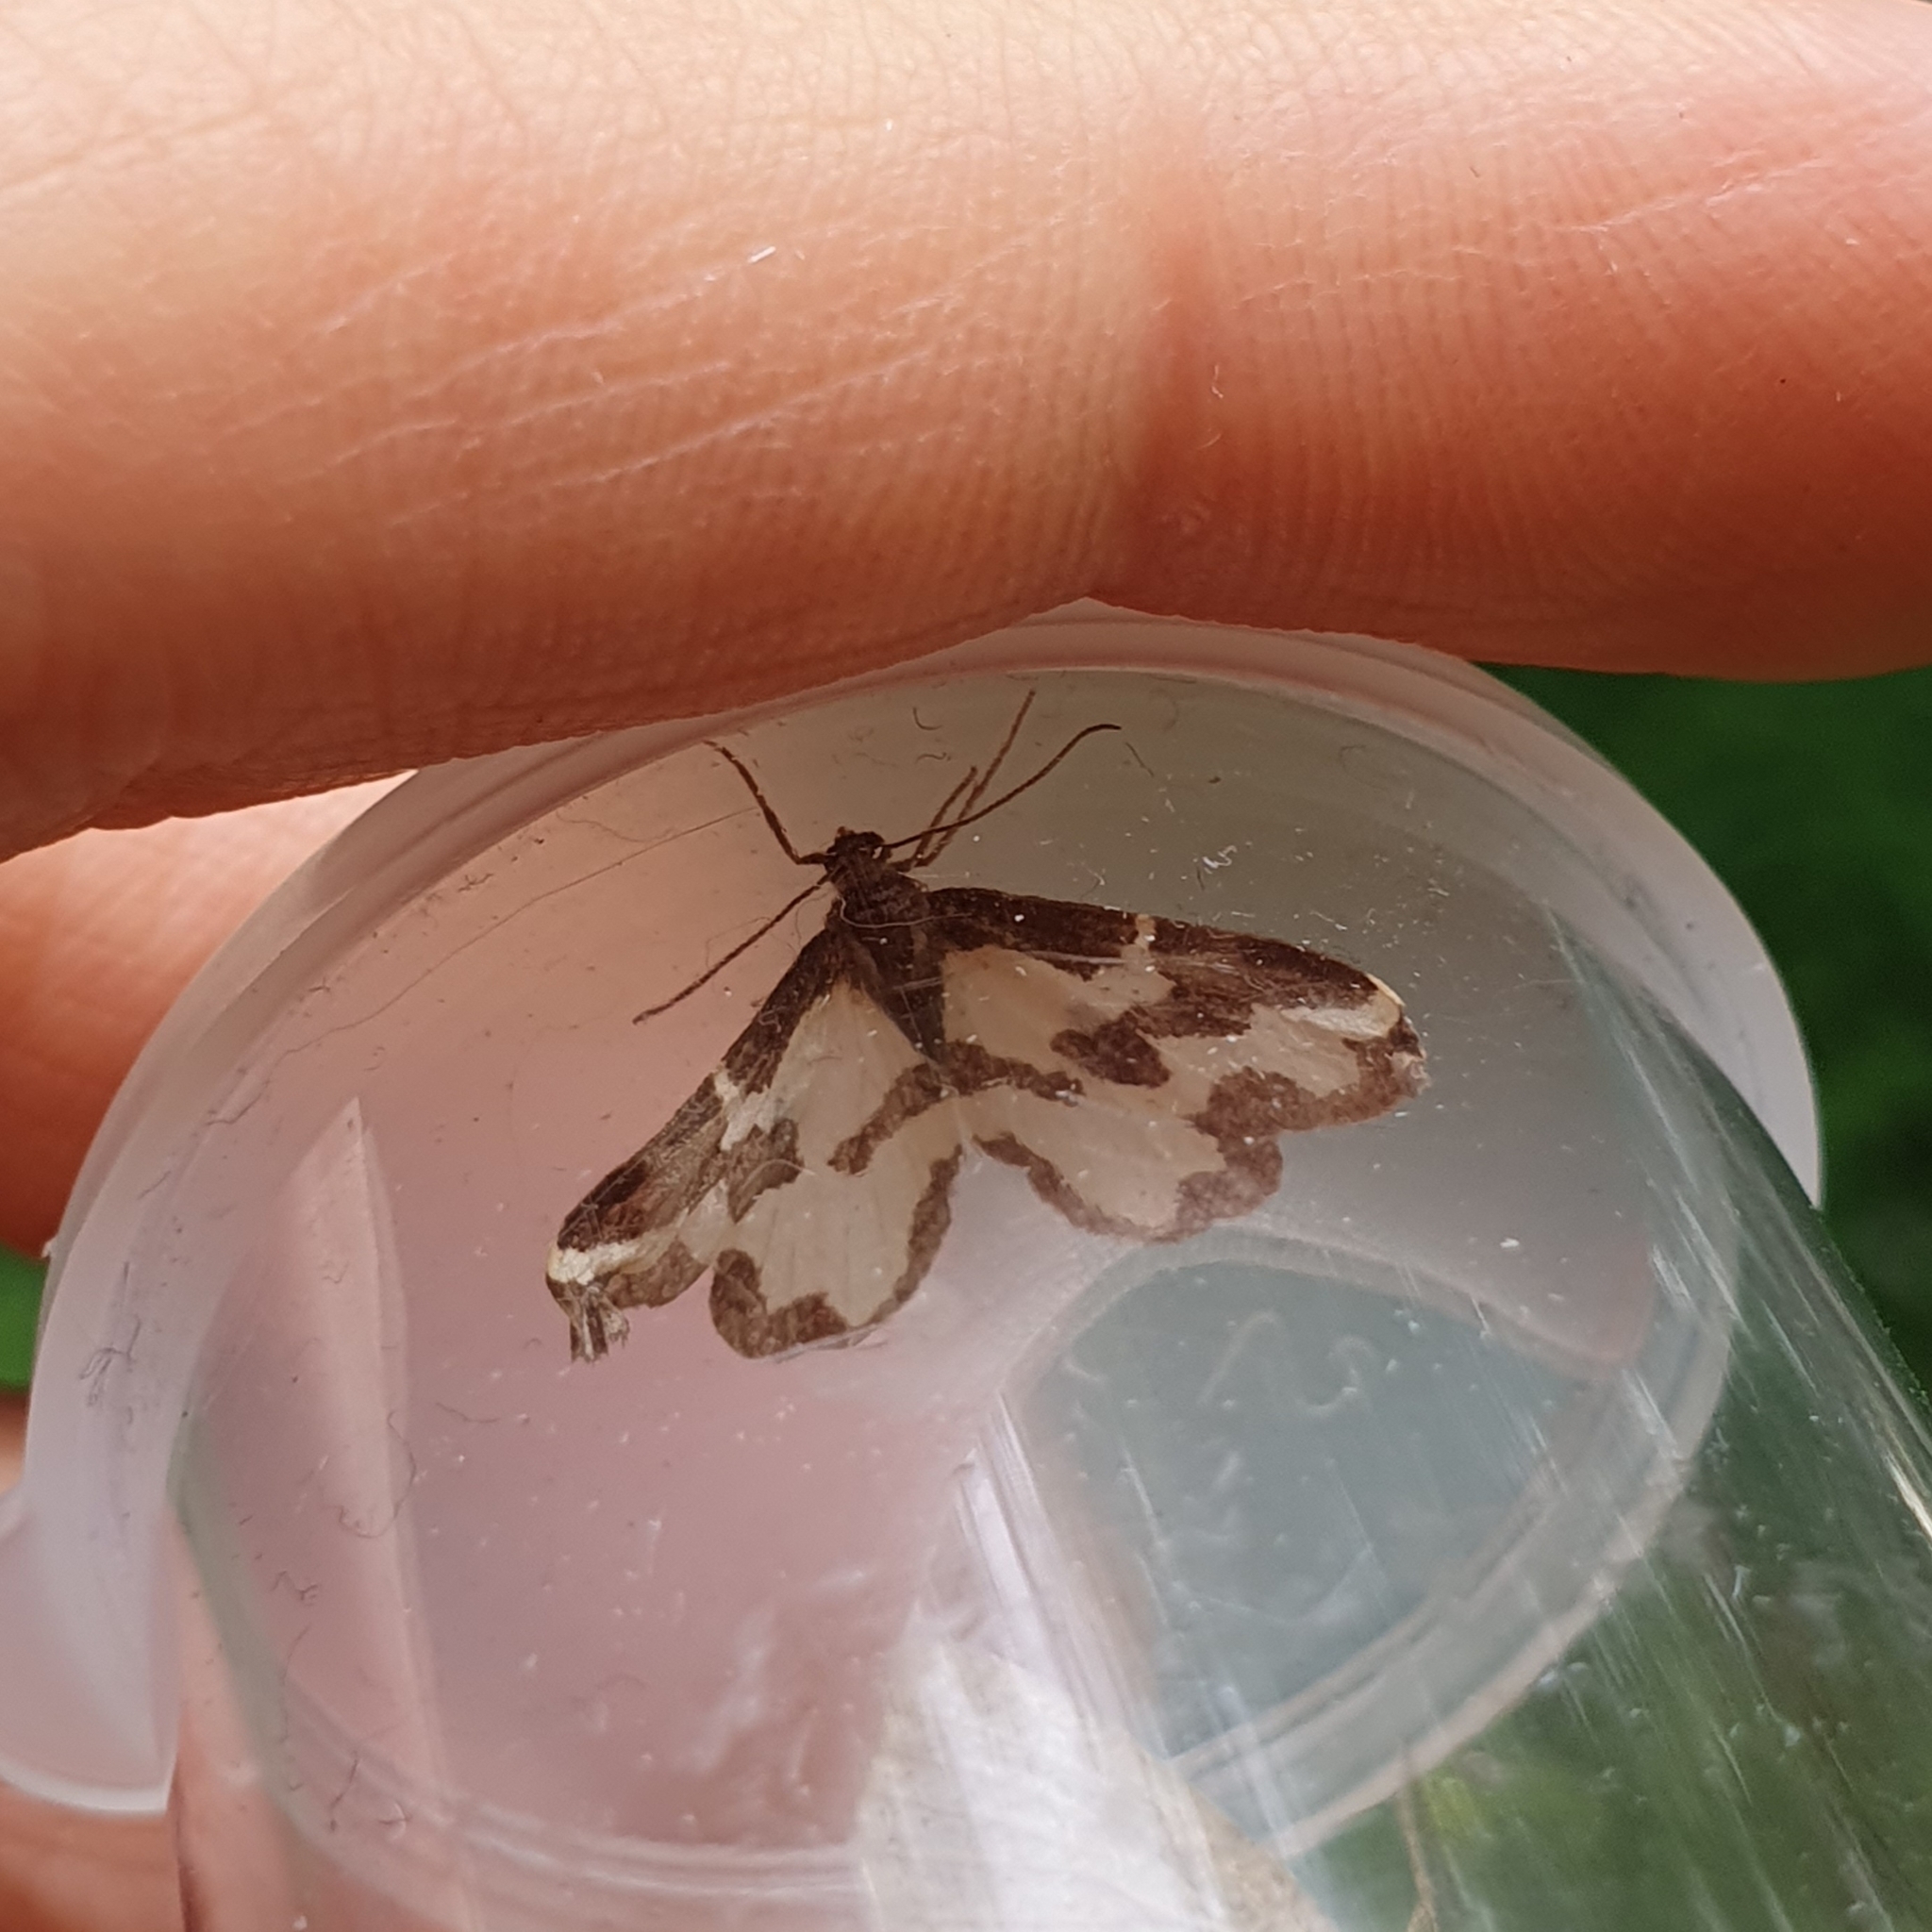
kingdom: Animalia
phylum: Arthropoda
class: Insecta
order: Lepidoptera
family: Geometridae
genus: Lomaspilis
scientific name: Lomaspilis marginata
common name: Clouded border
